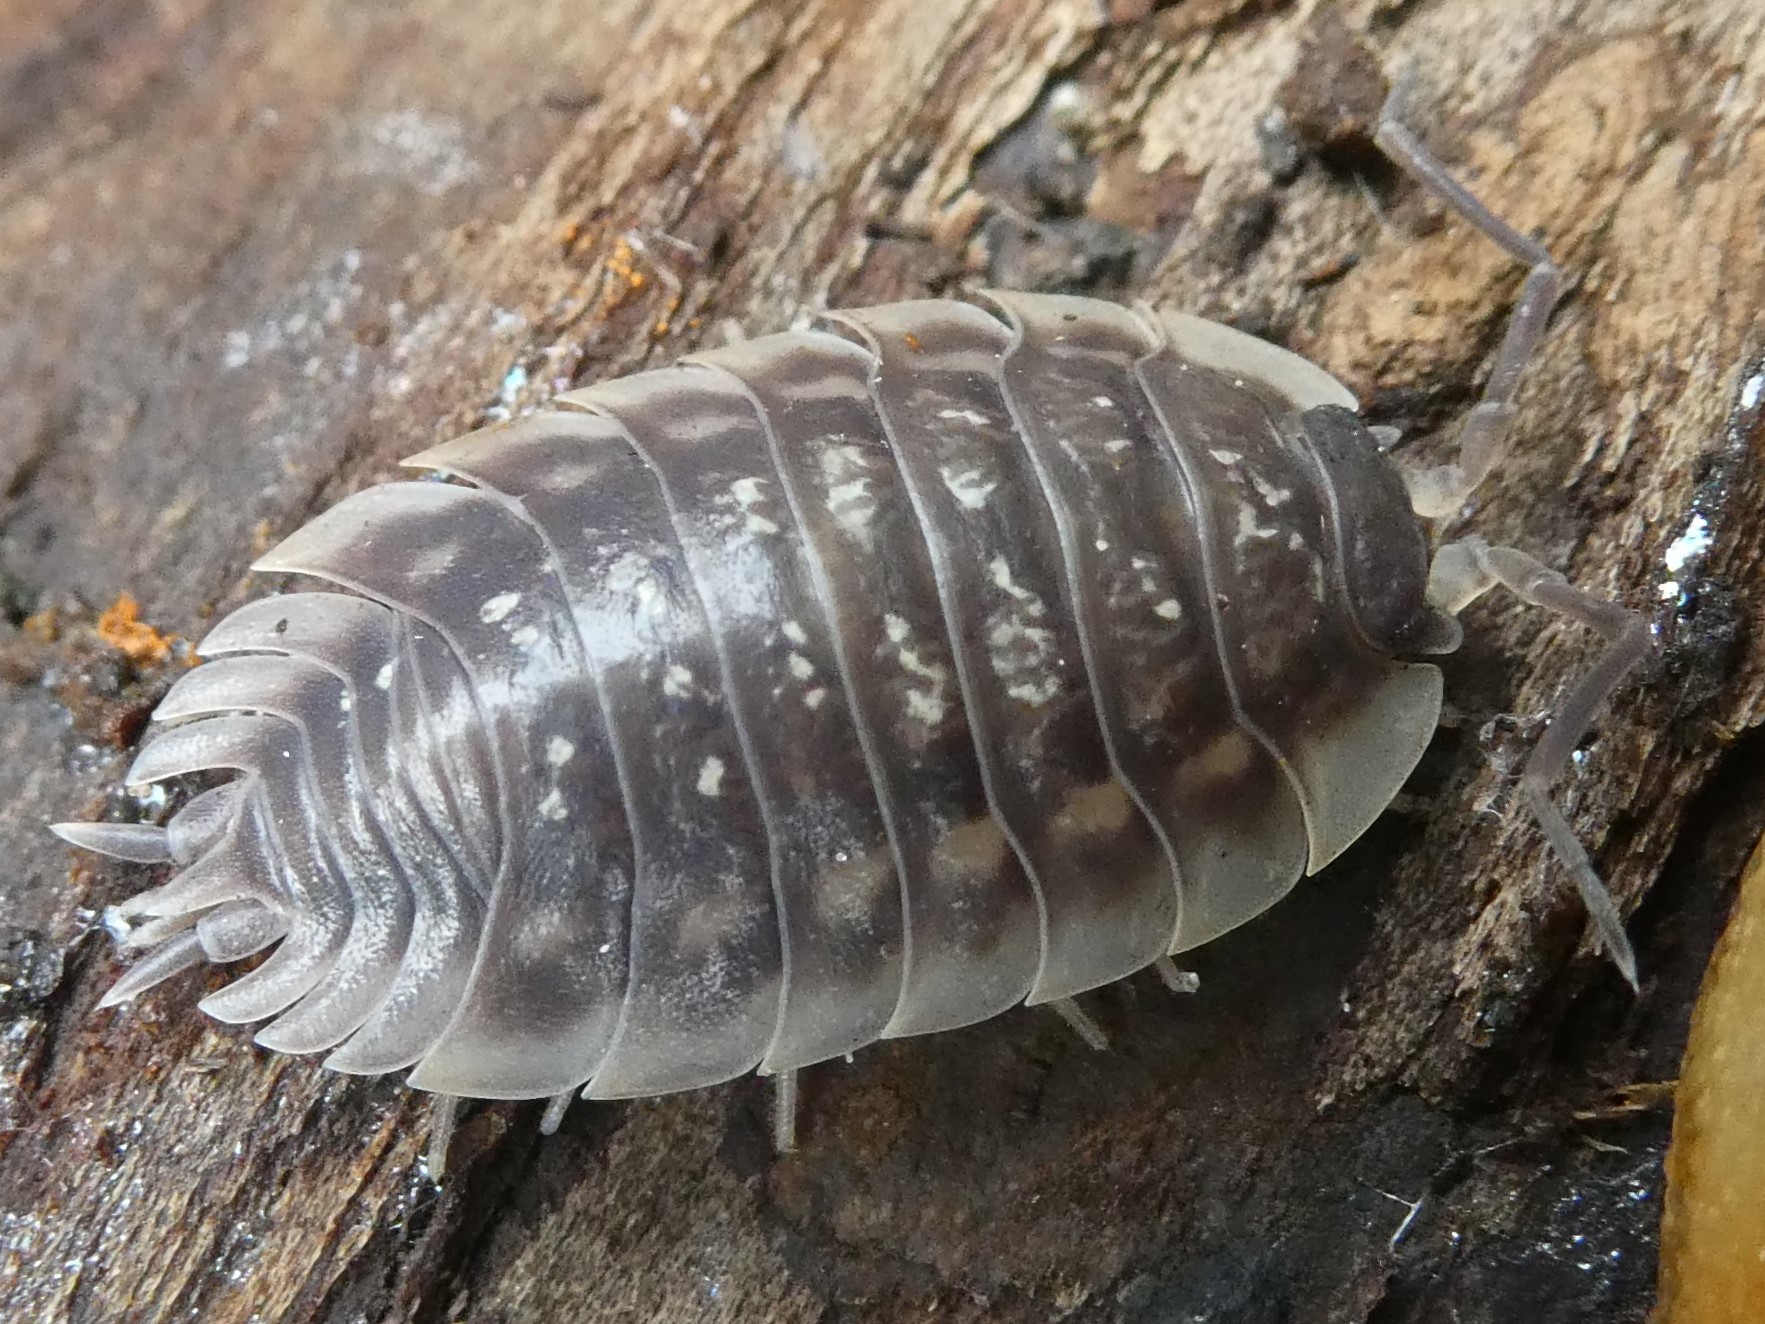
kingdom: Animalia
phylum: Arthropoda
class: Malacostraca
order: Isopoda
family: Oniscidae
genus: Oniscus
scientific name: Oniscus asellus
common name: Common shiny woodlouse
